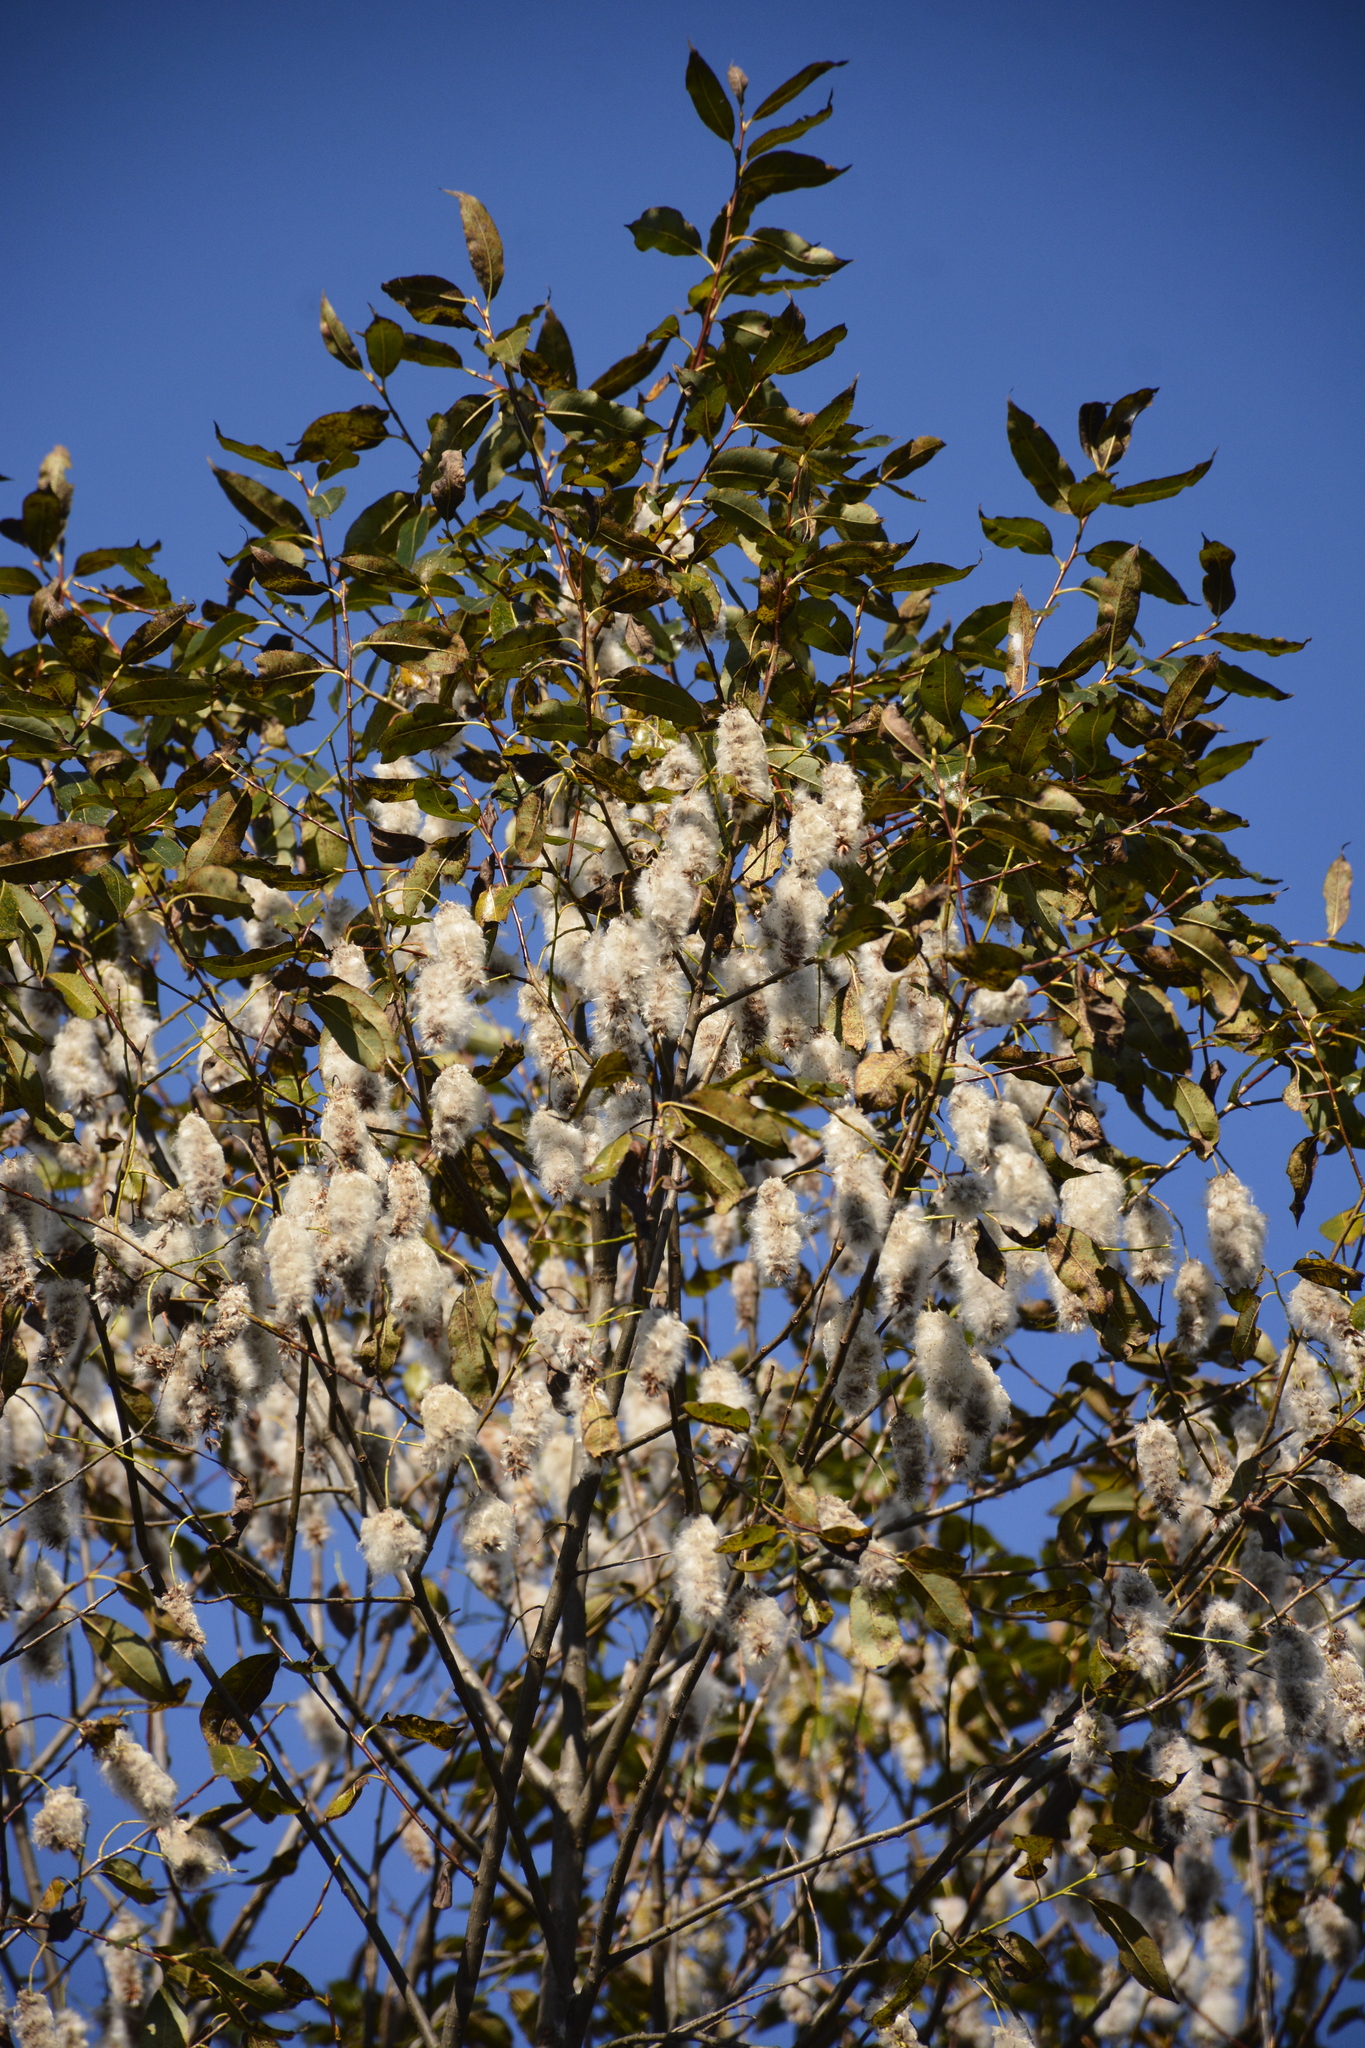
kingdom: Plantae
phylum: Tracheophyta
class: Magnoliopsida
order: Malpighiales
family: Salicaceae
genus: Salix
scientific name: Salix pentandra
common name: Bay willow
